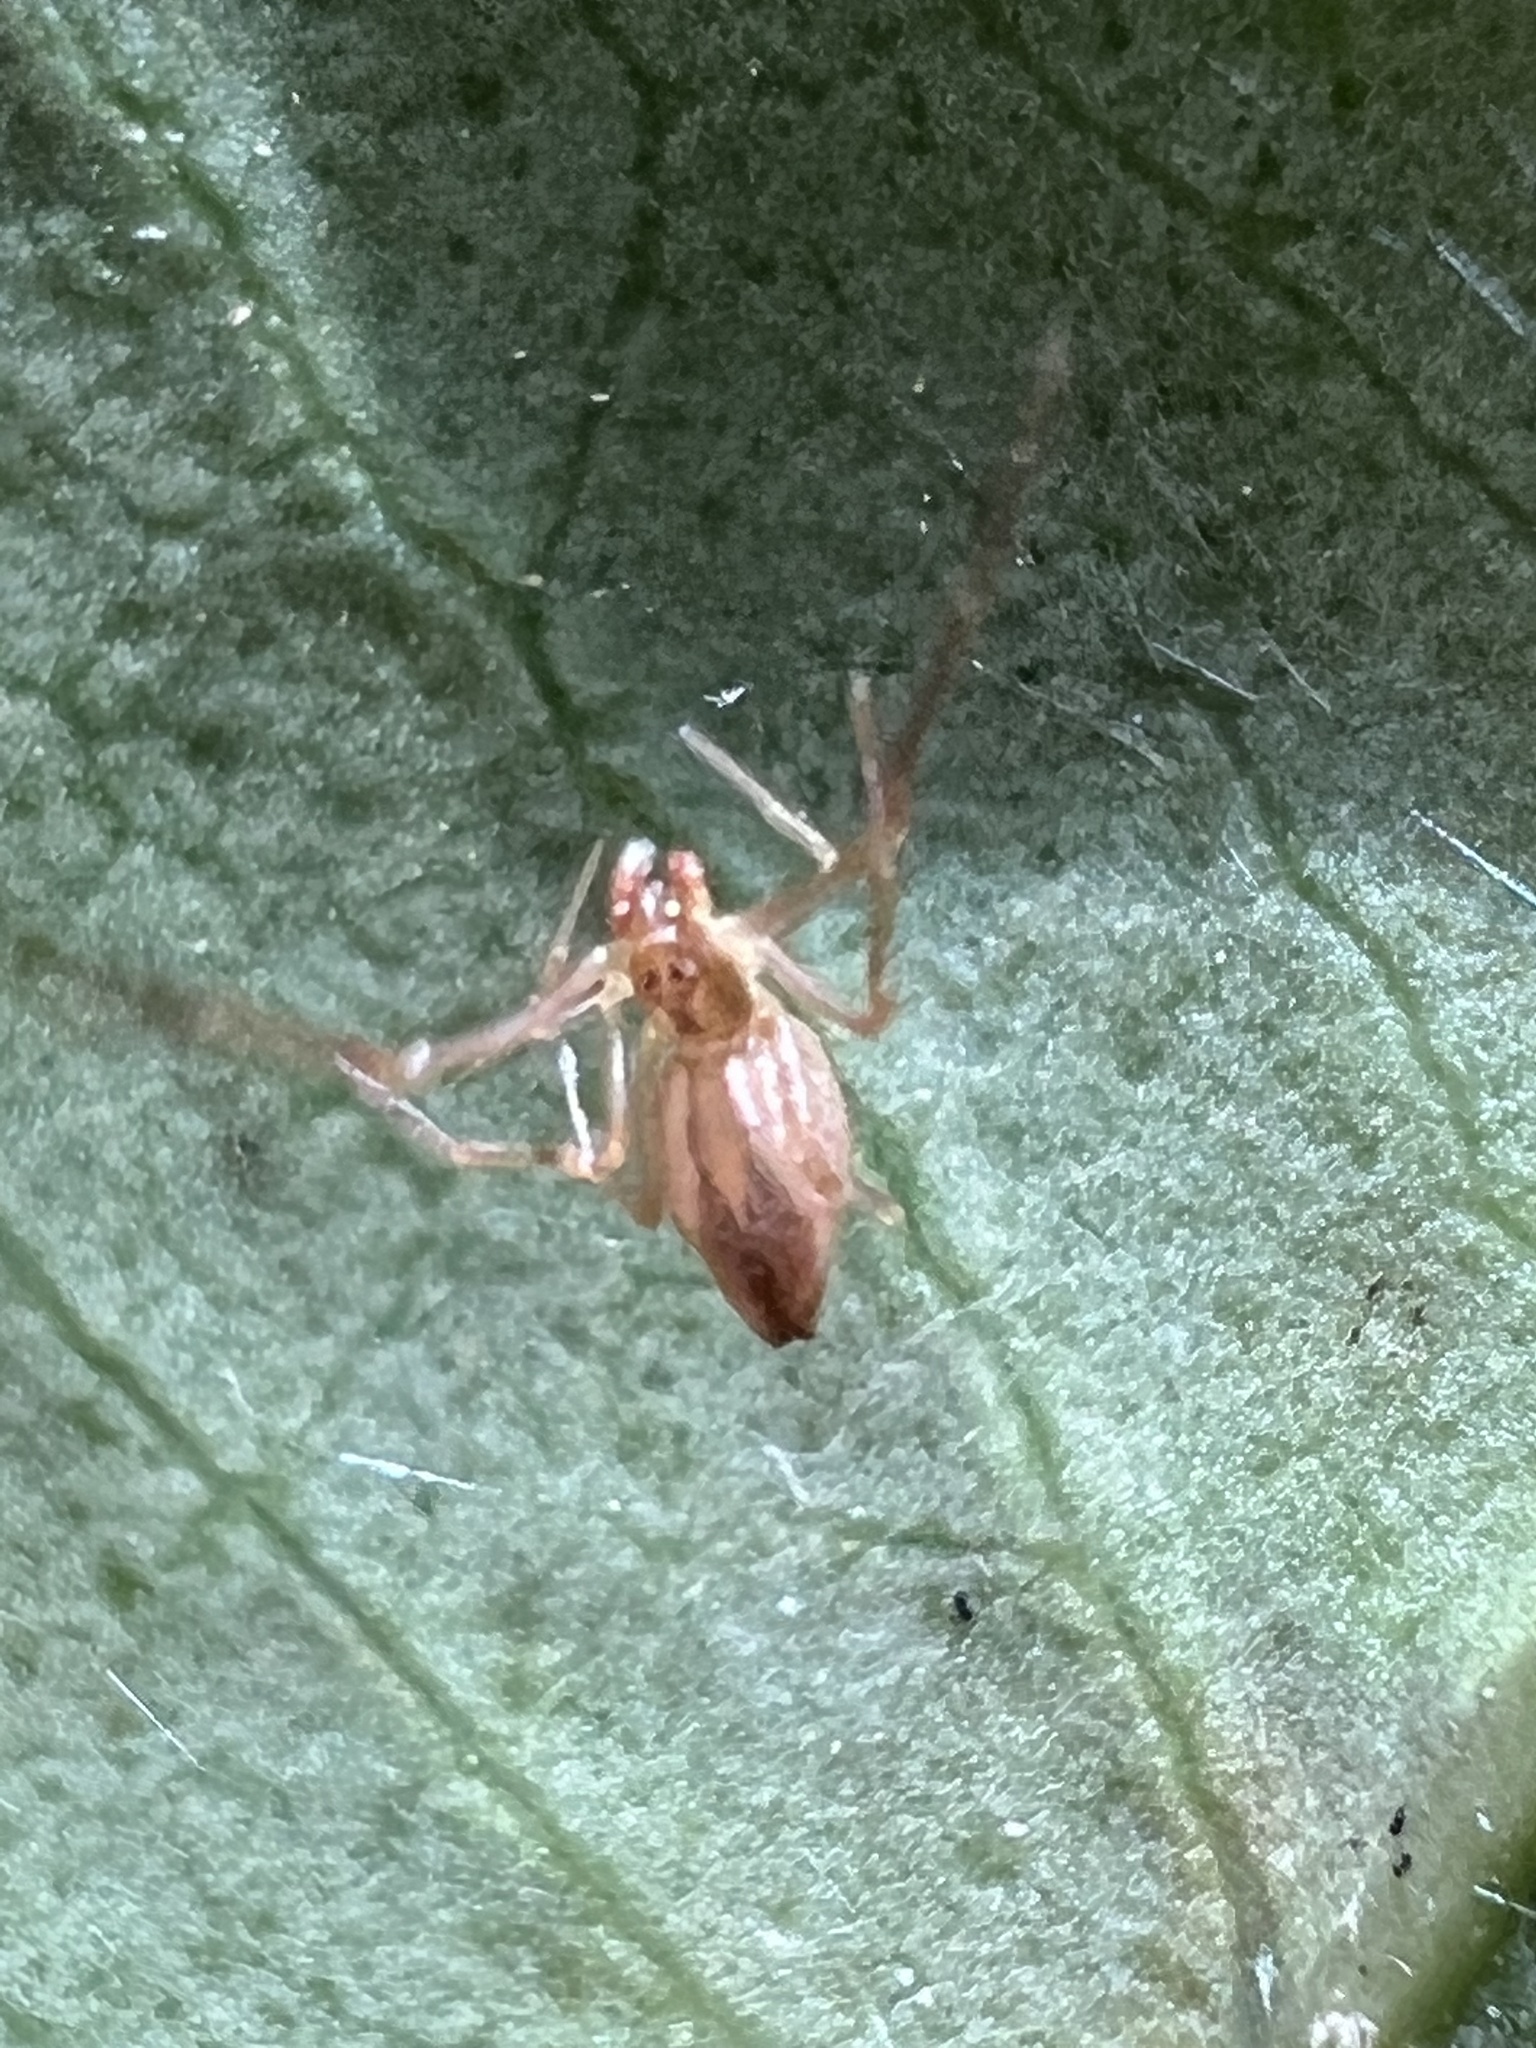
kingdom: Animalia
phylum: Arthropoda
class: Arachnida
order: Araneae
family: Theridiidae
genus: Neospintharus
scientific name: Neospintharus trigonum
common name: Horned parasitic cobweaver
